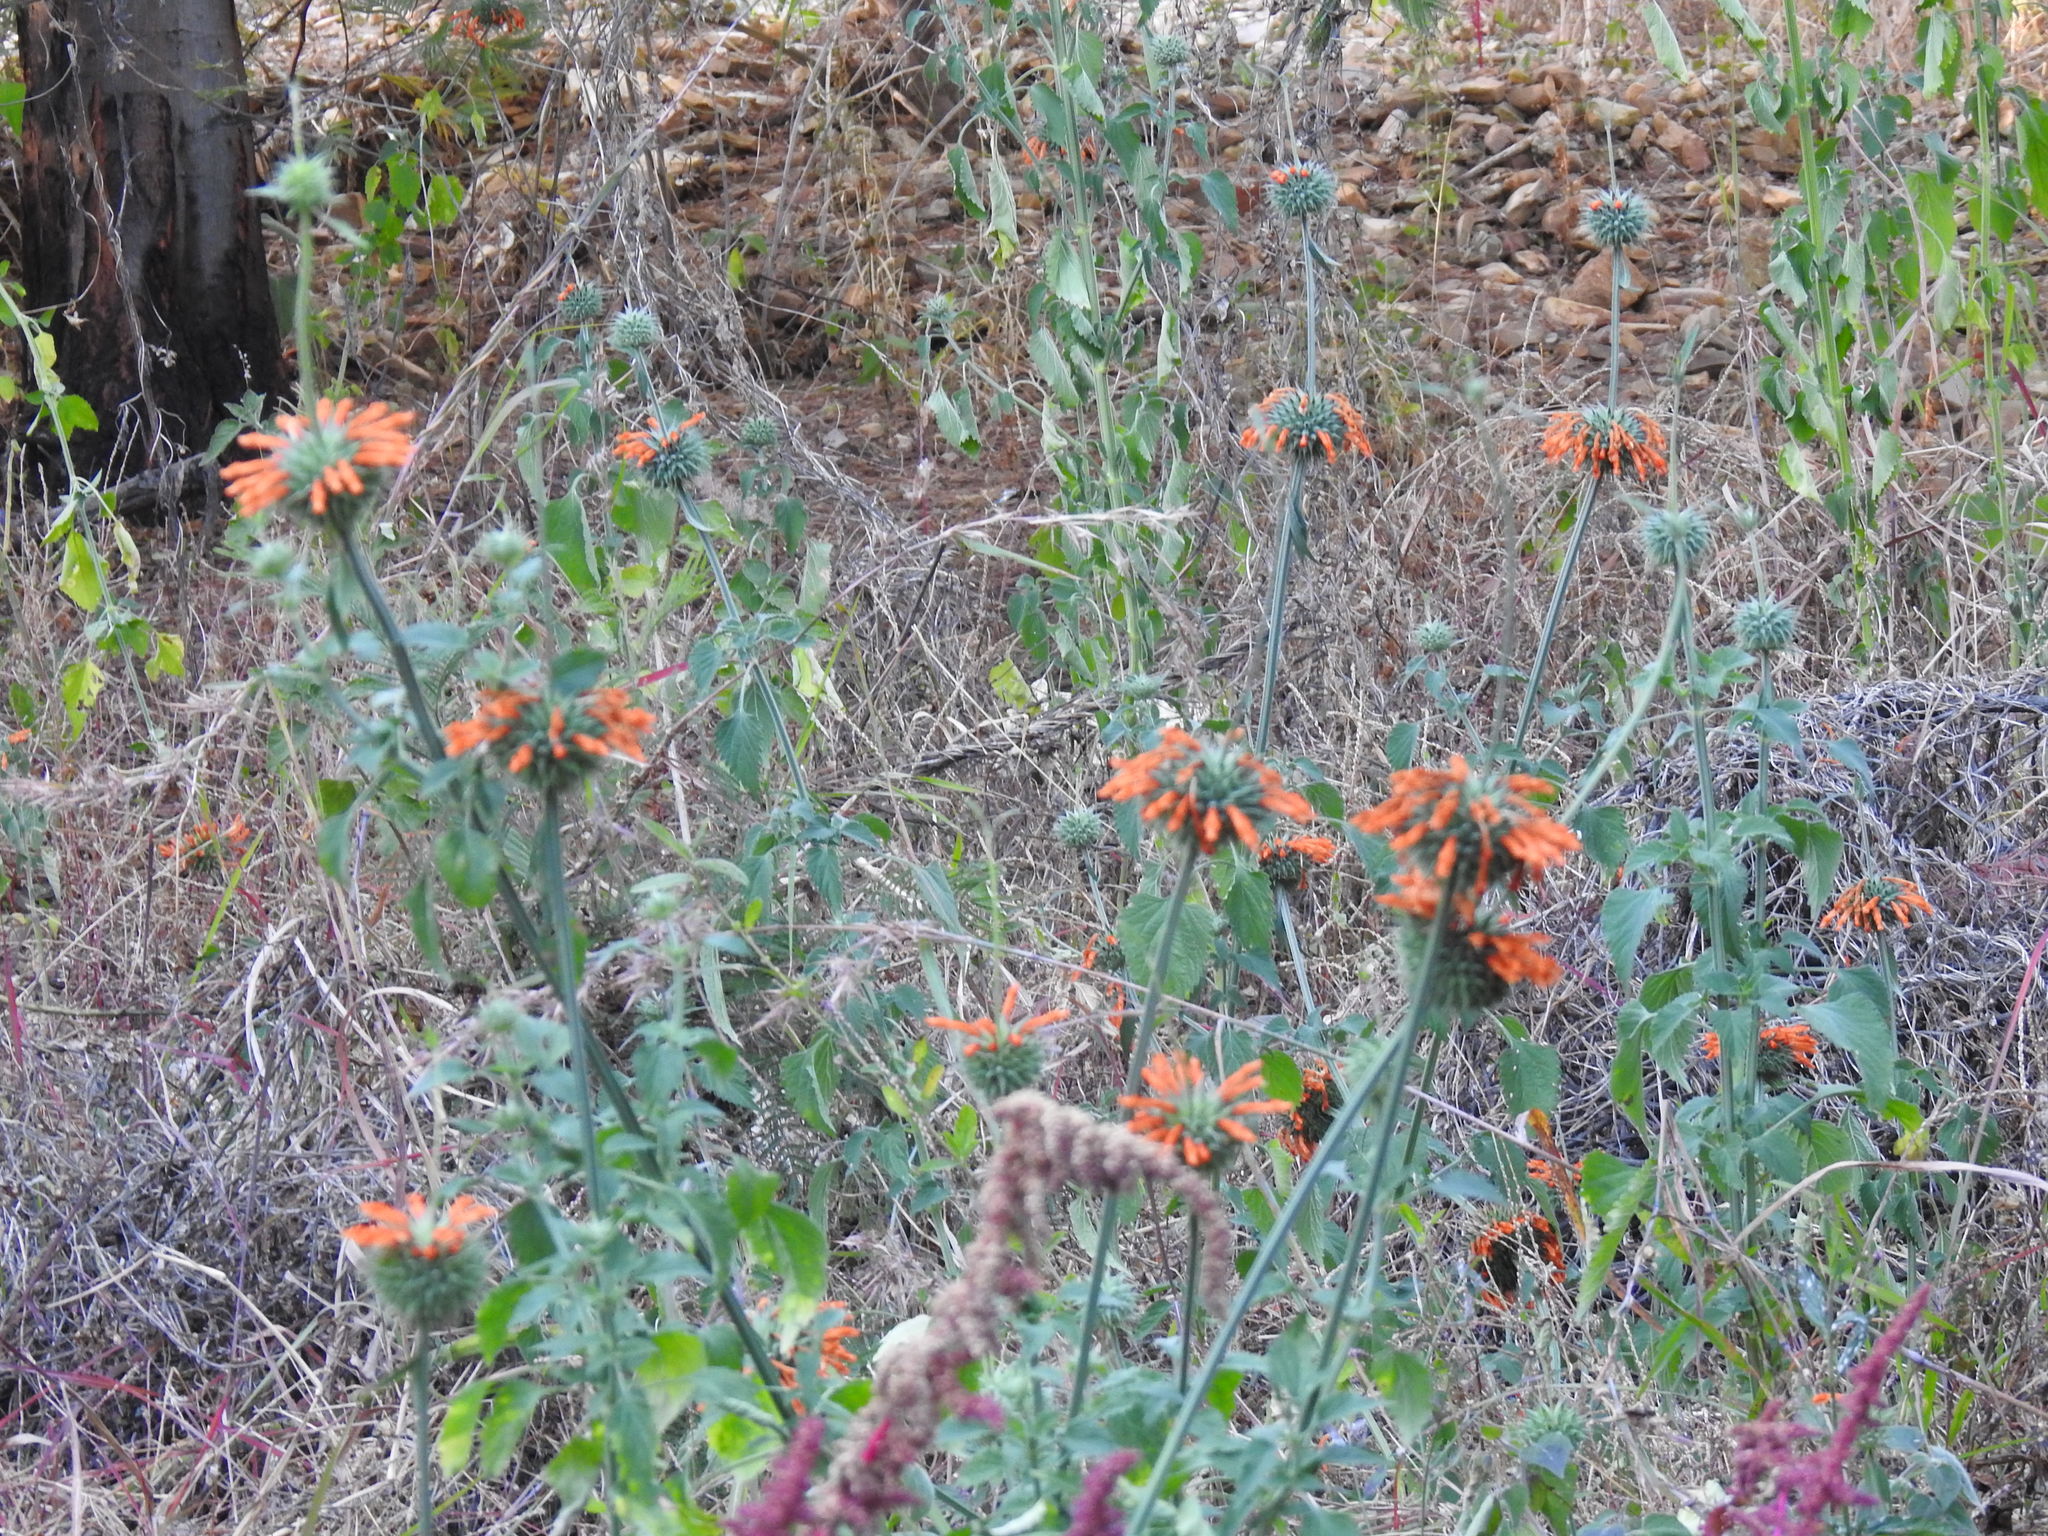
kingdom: Plantae
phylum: Tracheophyta
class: Magnoliopsida
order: Lamiales
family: Lamiaceae
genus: Leonotis
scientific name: Leonotis nepetifolia
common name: Christmas candlestick
